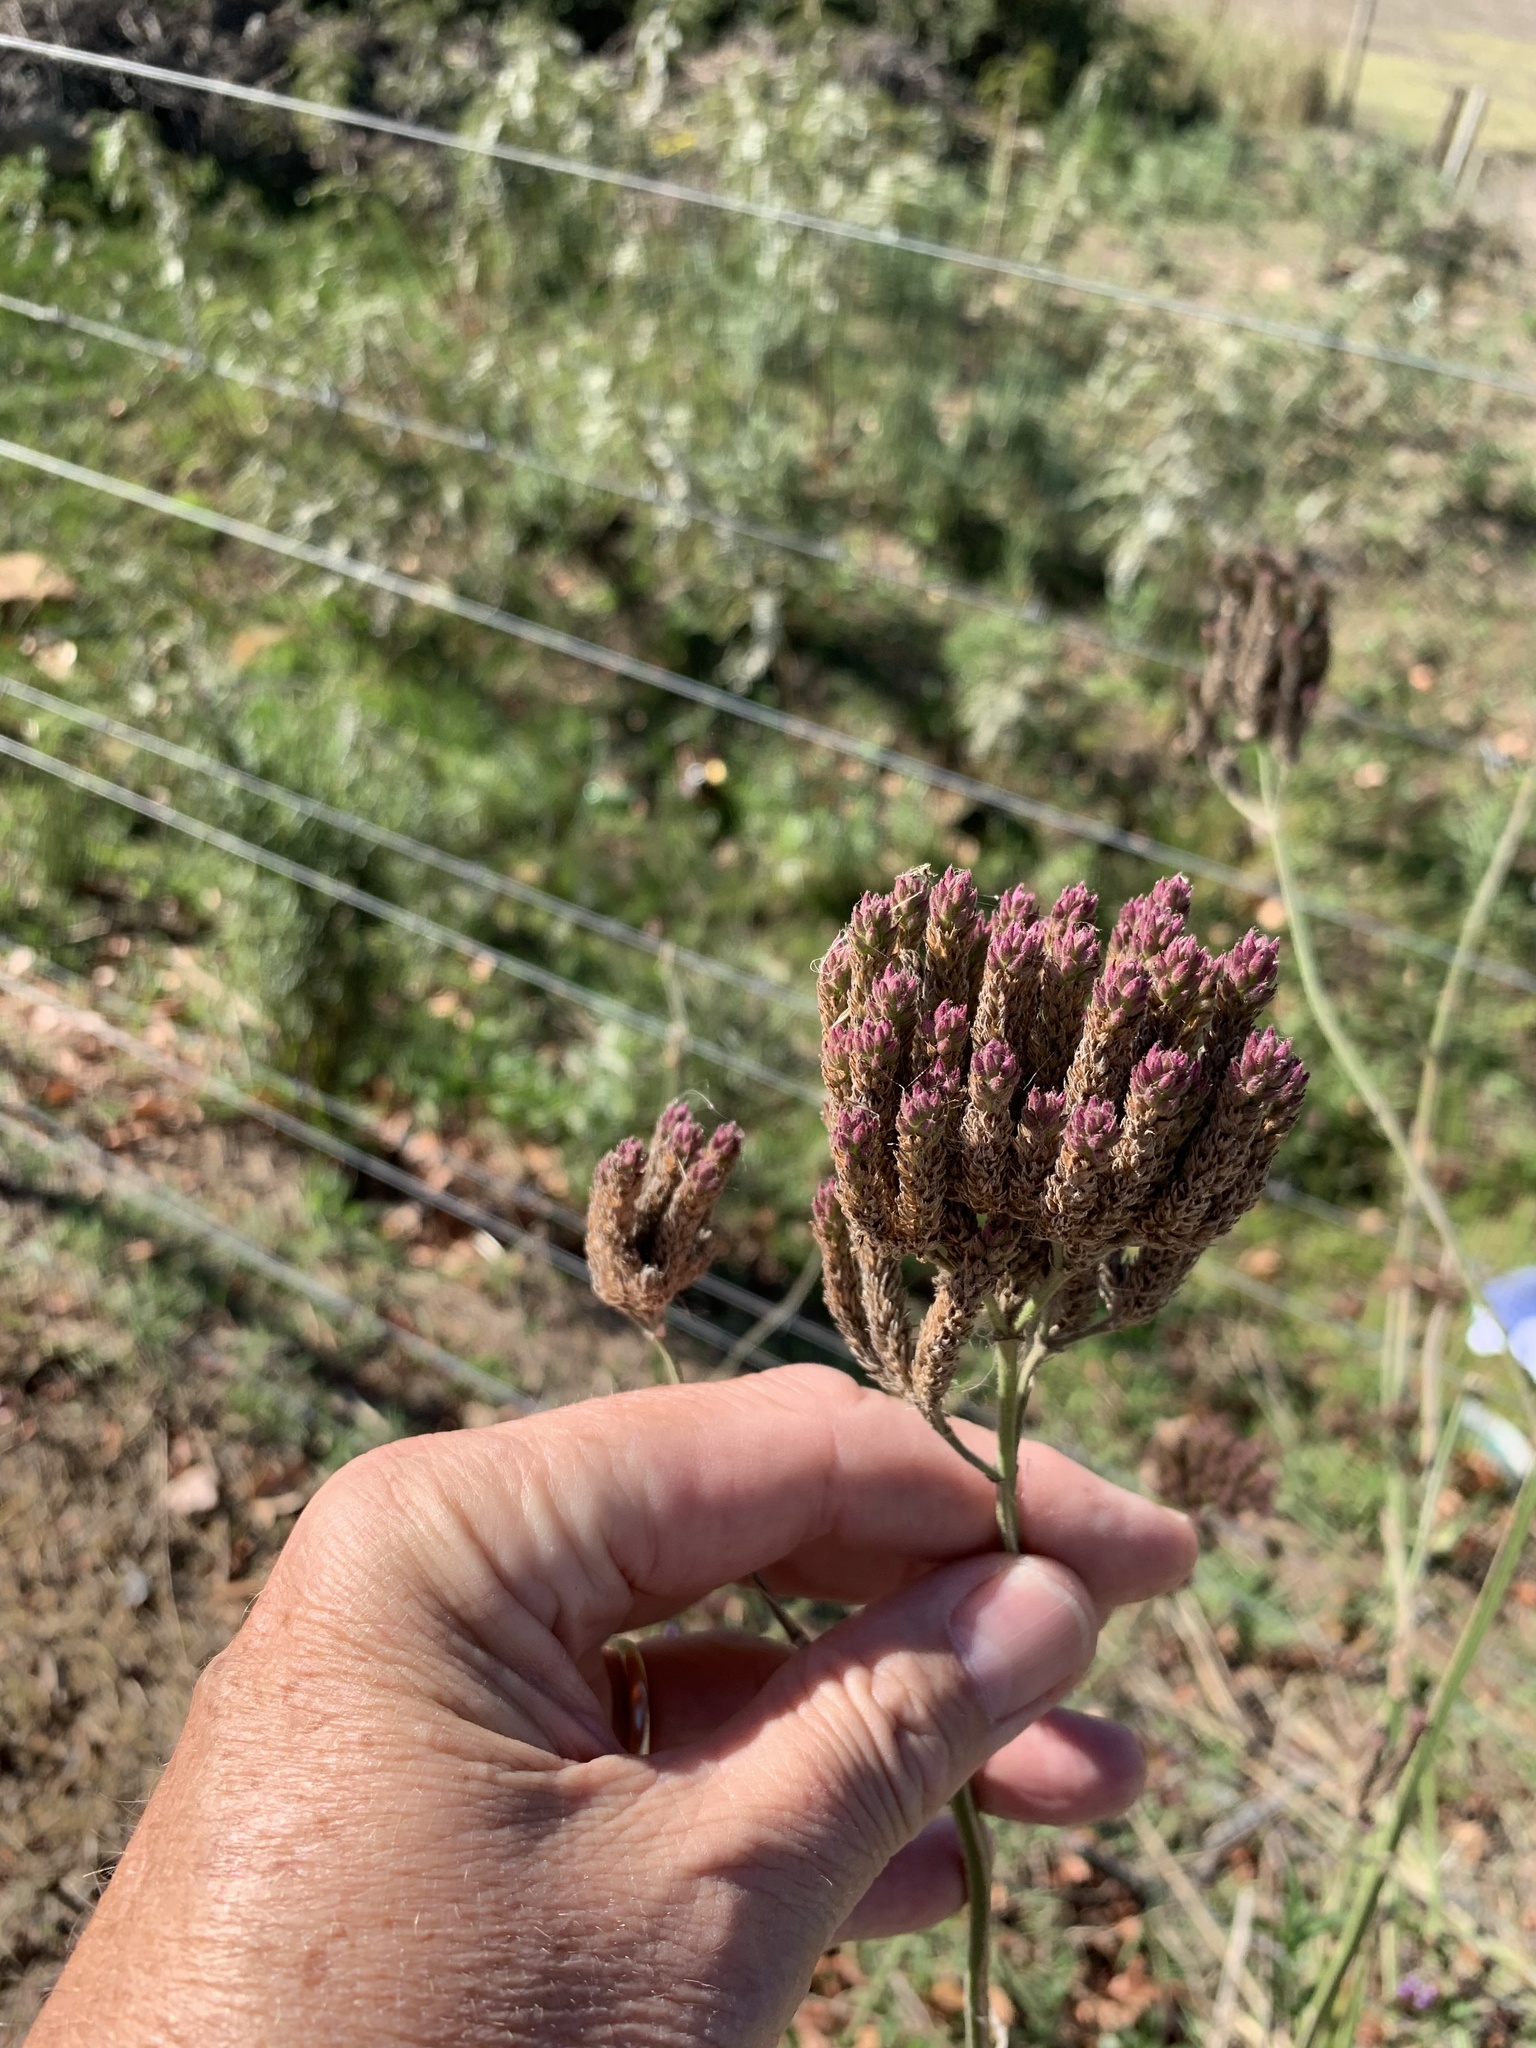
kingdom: Plantae
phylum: Tracheophyta
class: Magnoliopsida
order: Lamiales
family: Verbenaceae
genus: Verbena
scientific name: Verbena bonariensis
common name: Purpletop vervain
